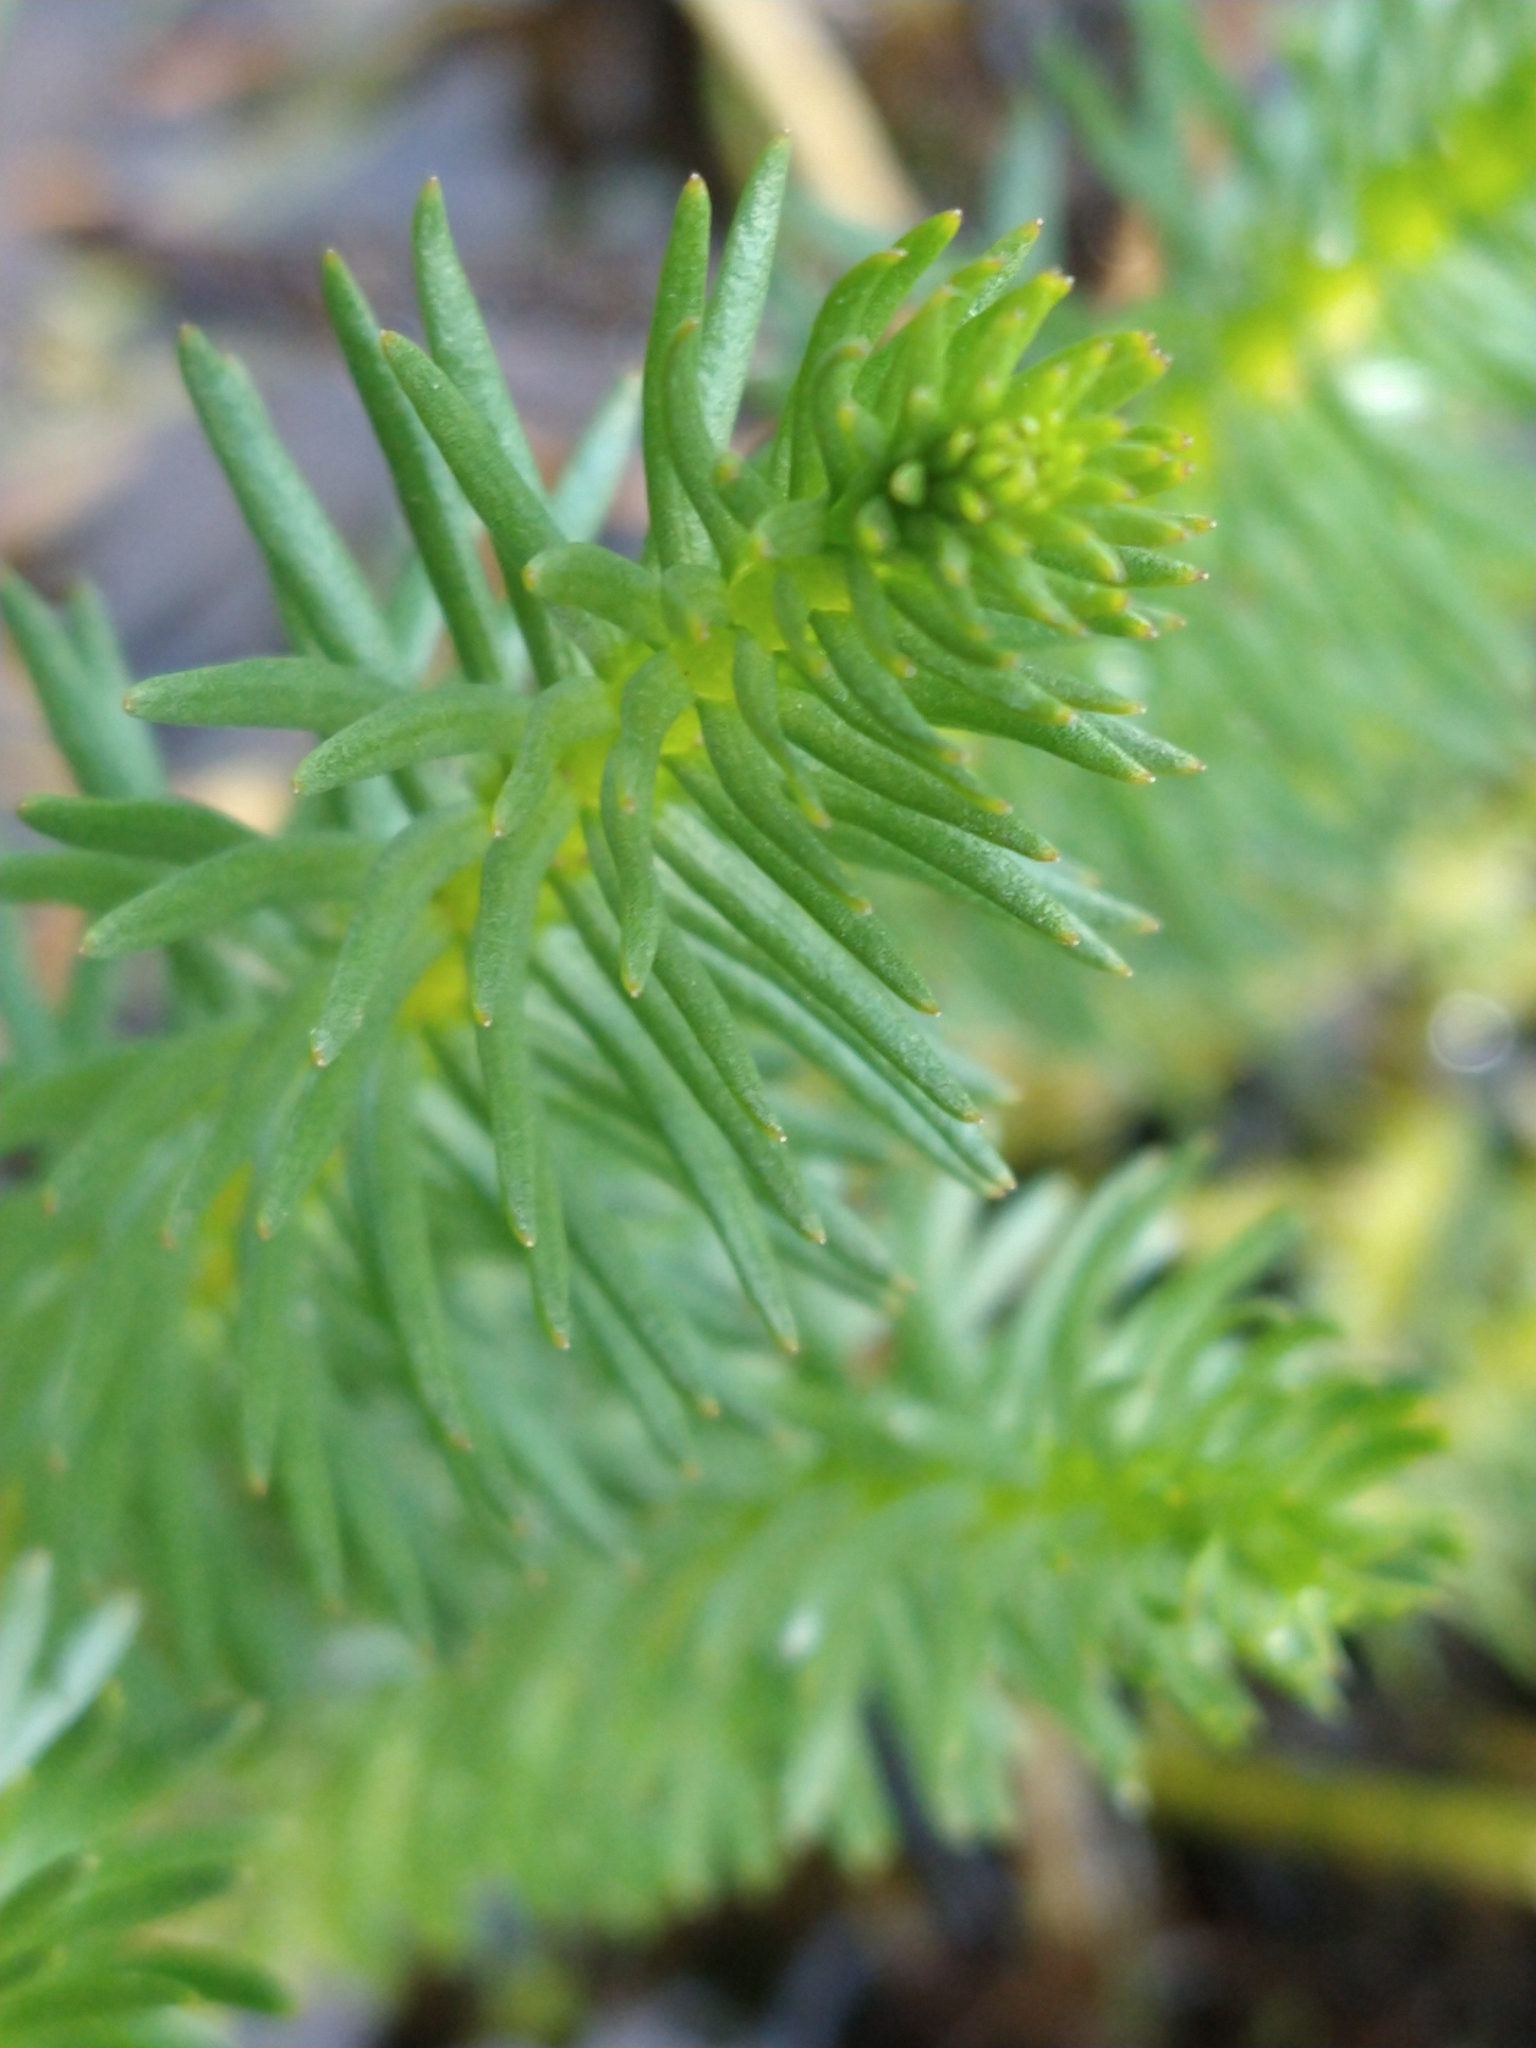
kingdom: Plantae
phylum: Tracheophyta
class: Magnoliopsida
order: Lamiales
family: Plantaginaceae
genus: Hippuris
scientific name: Hippuris vulgaris
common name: Mare's-tail
